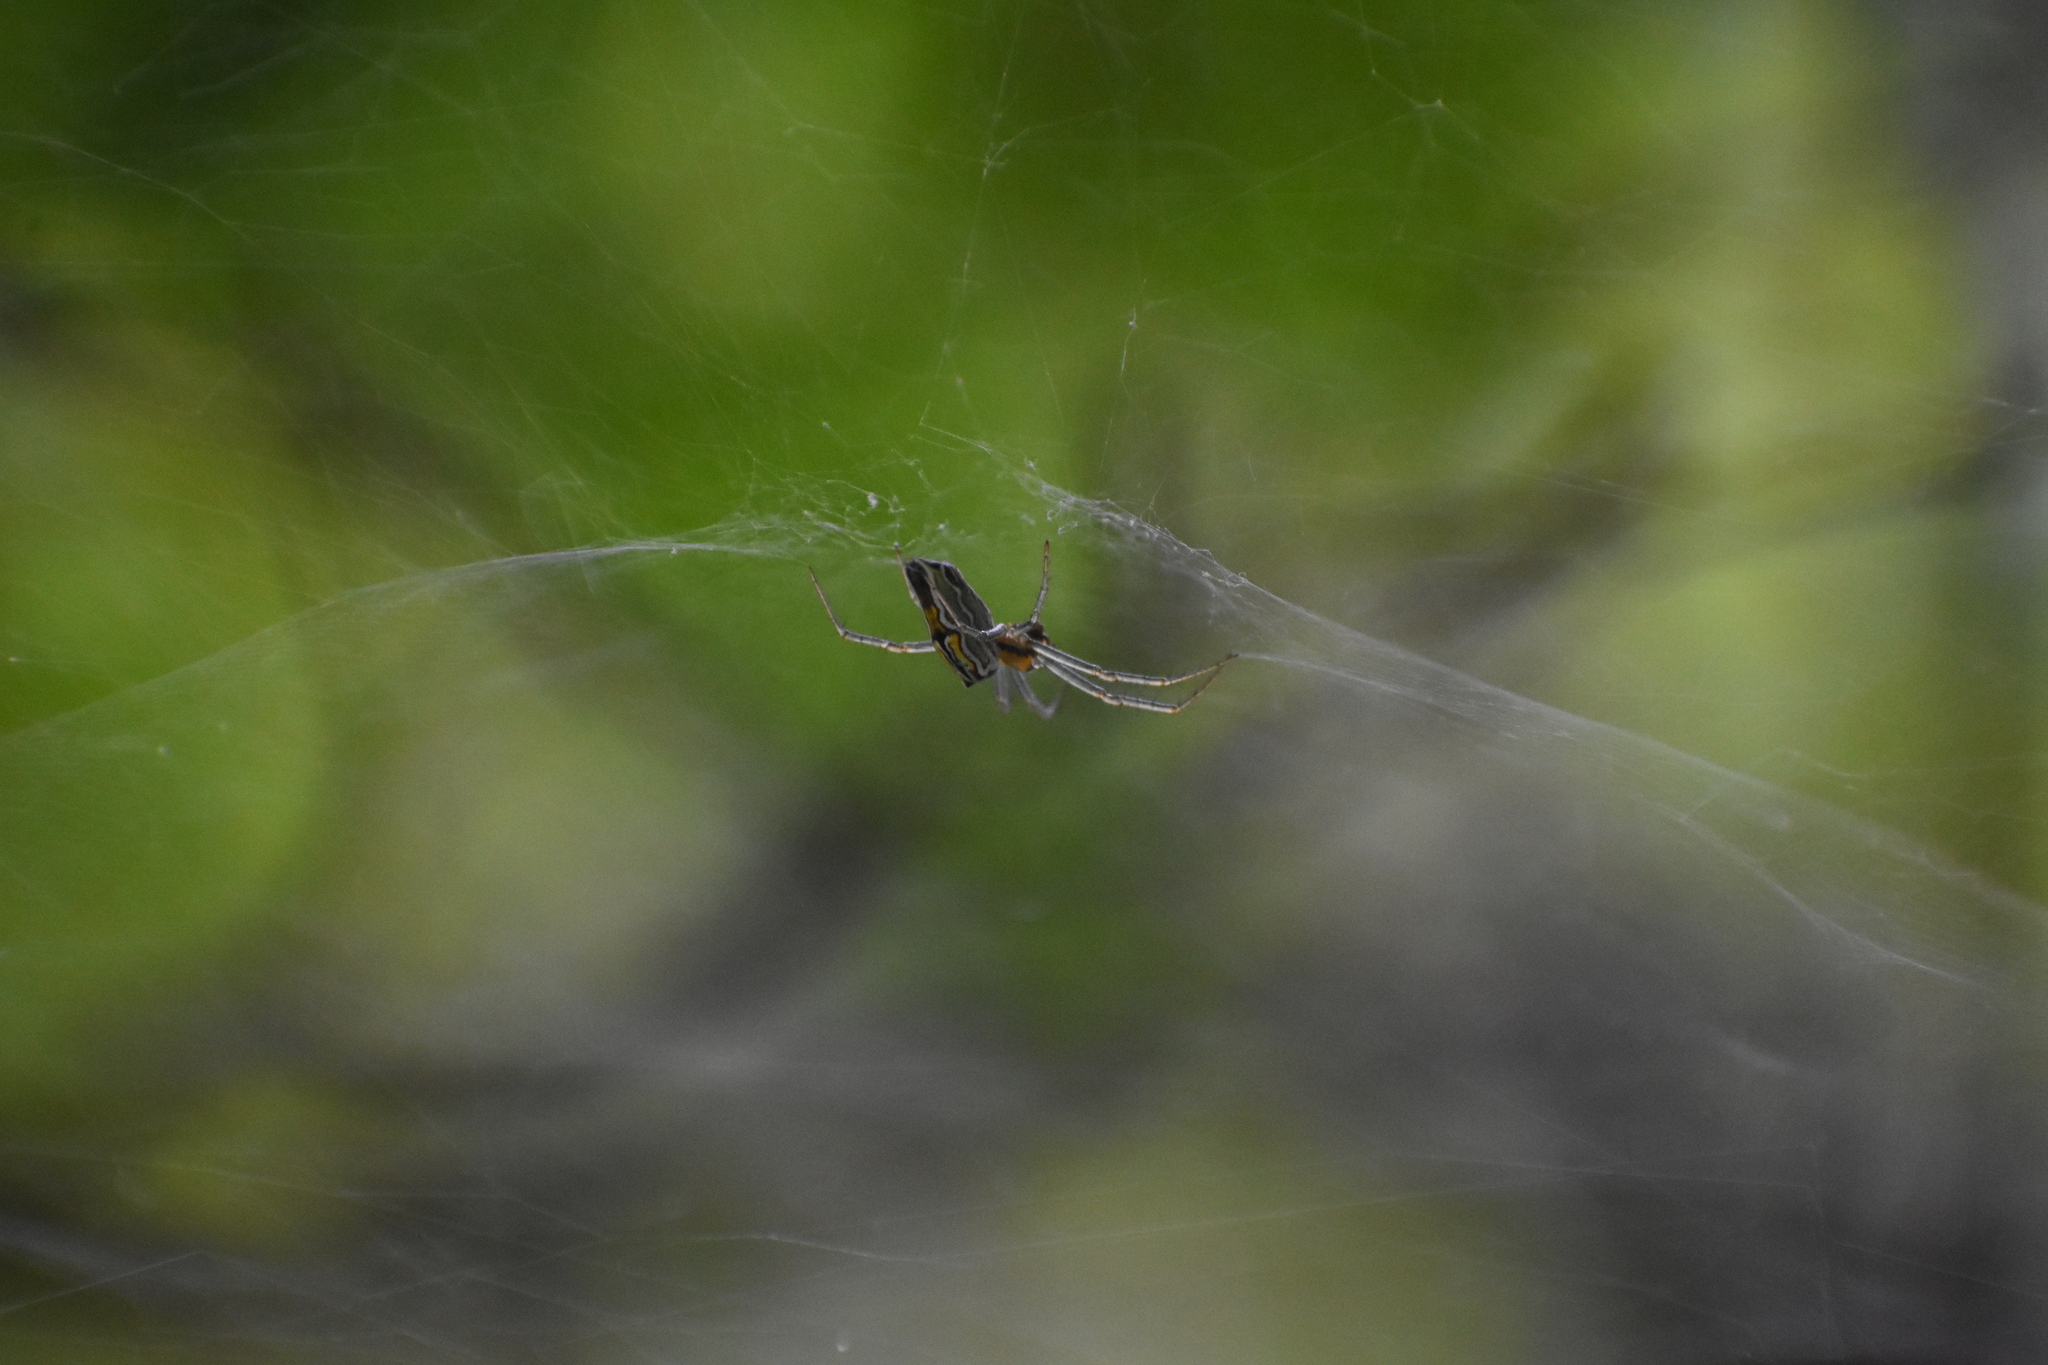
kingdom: Animalia
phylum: Arthropoda
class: Arachnida
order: Araneae
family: Araneidae
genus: Mecynogea
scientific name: Mecynogea lemniscata
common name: Orb weavers
